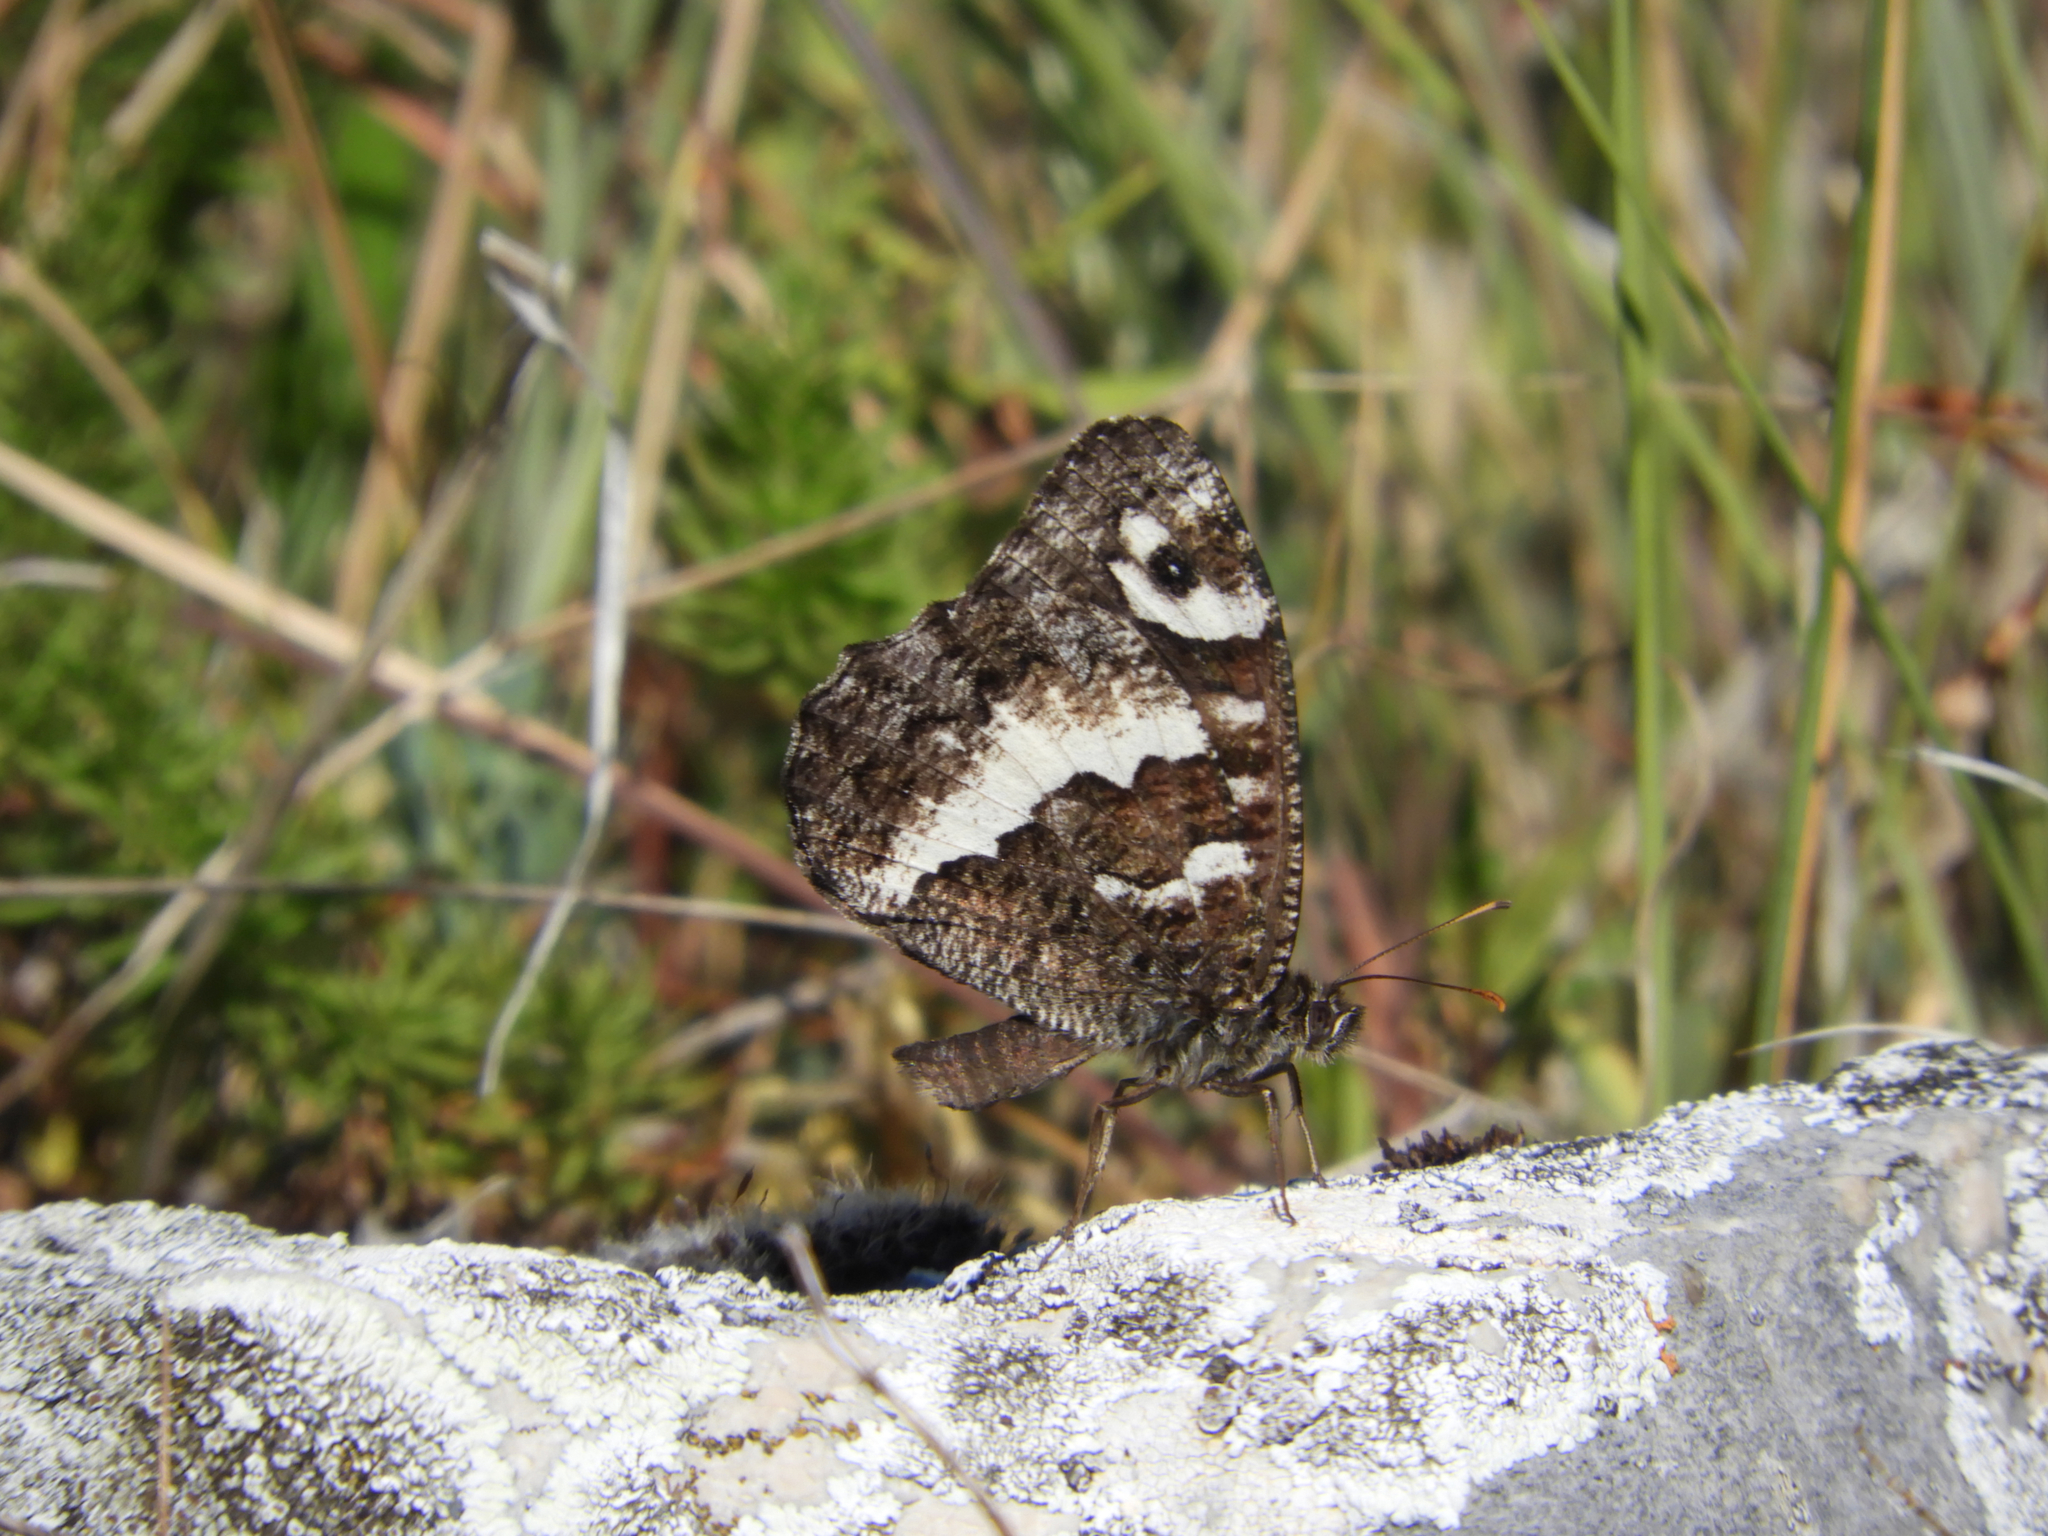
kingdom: Animalia
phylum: Arthropoda
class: Insecta
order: Lepidoptera
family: Lycaenidae
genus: Loweia
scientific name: Loweia tityrus
